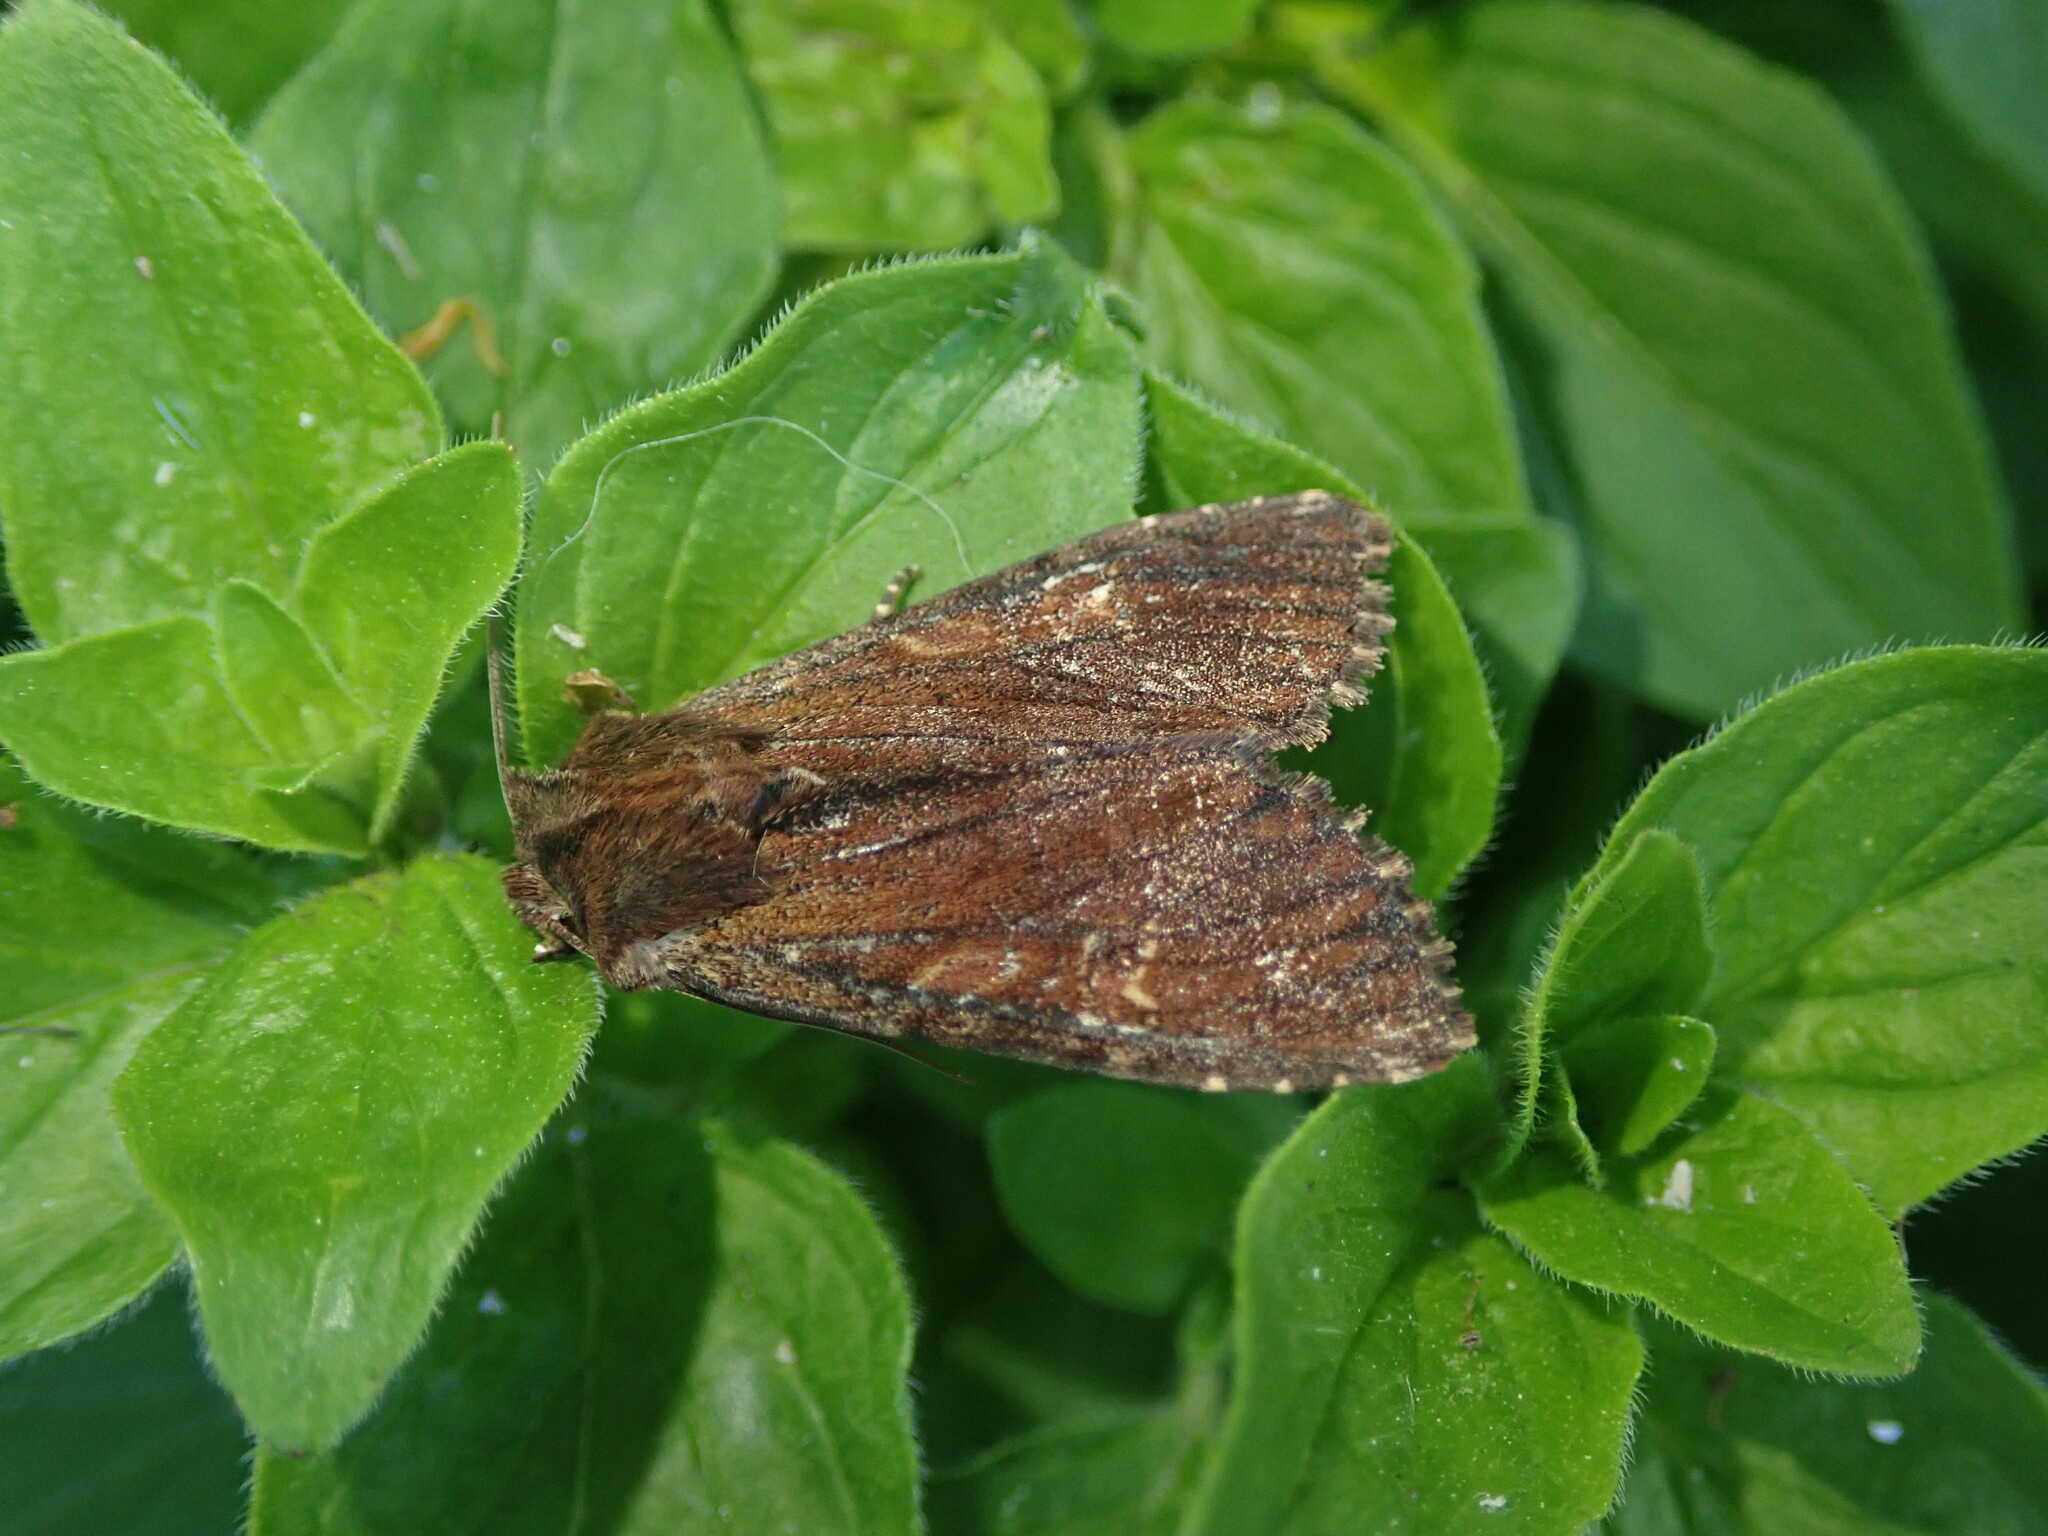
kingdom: Animalia
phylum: Arthropoda
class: Insecta
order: Lepidoptera
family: Noctuidae
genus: Apamea
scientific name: Apamea crenata
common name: Clouded-bordered brindle
